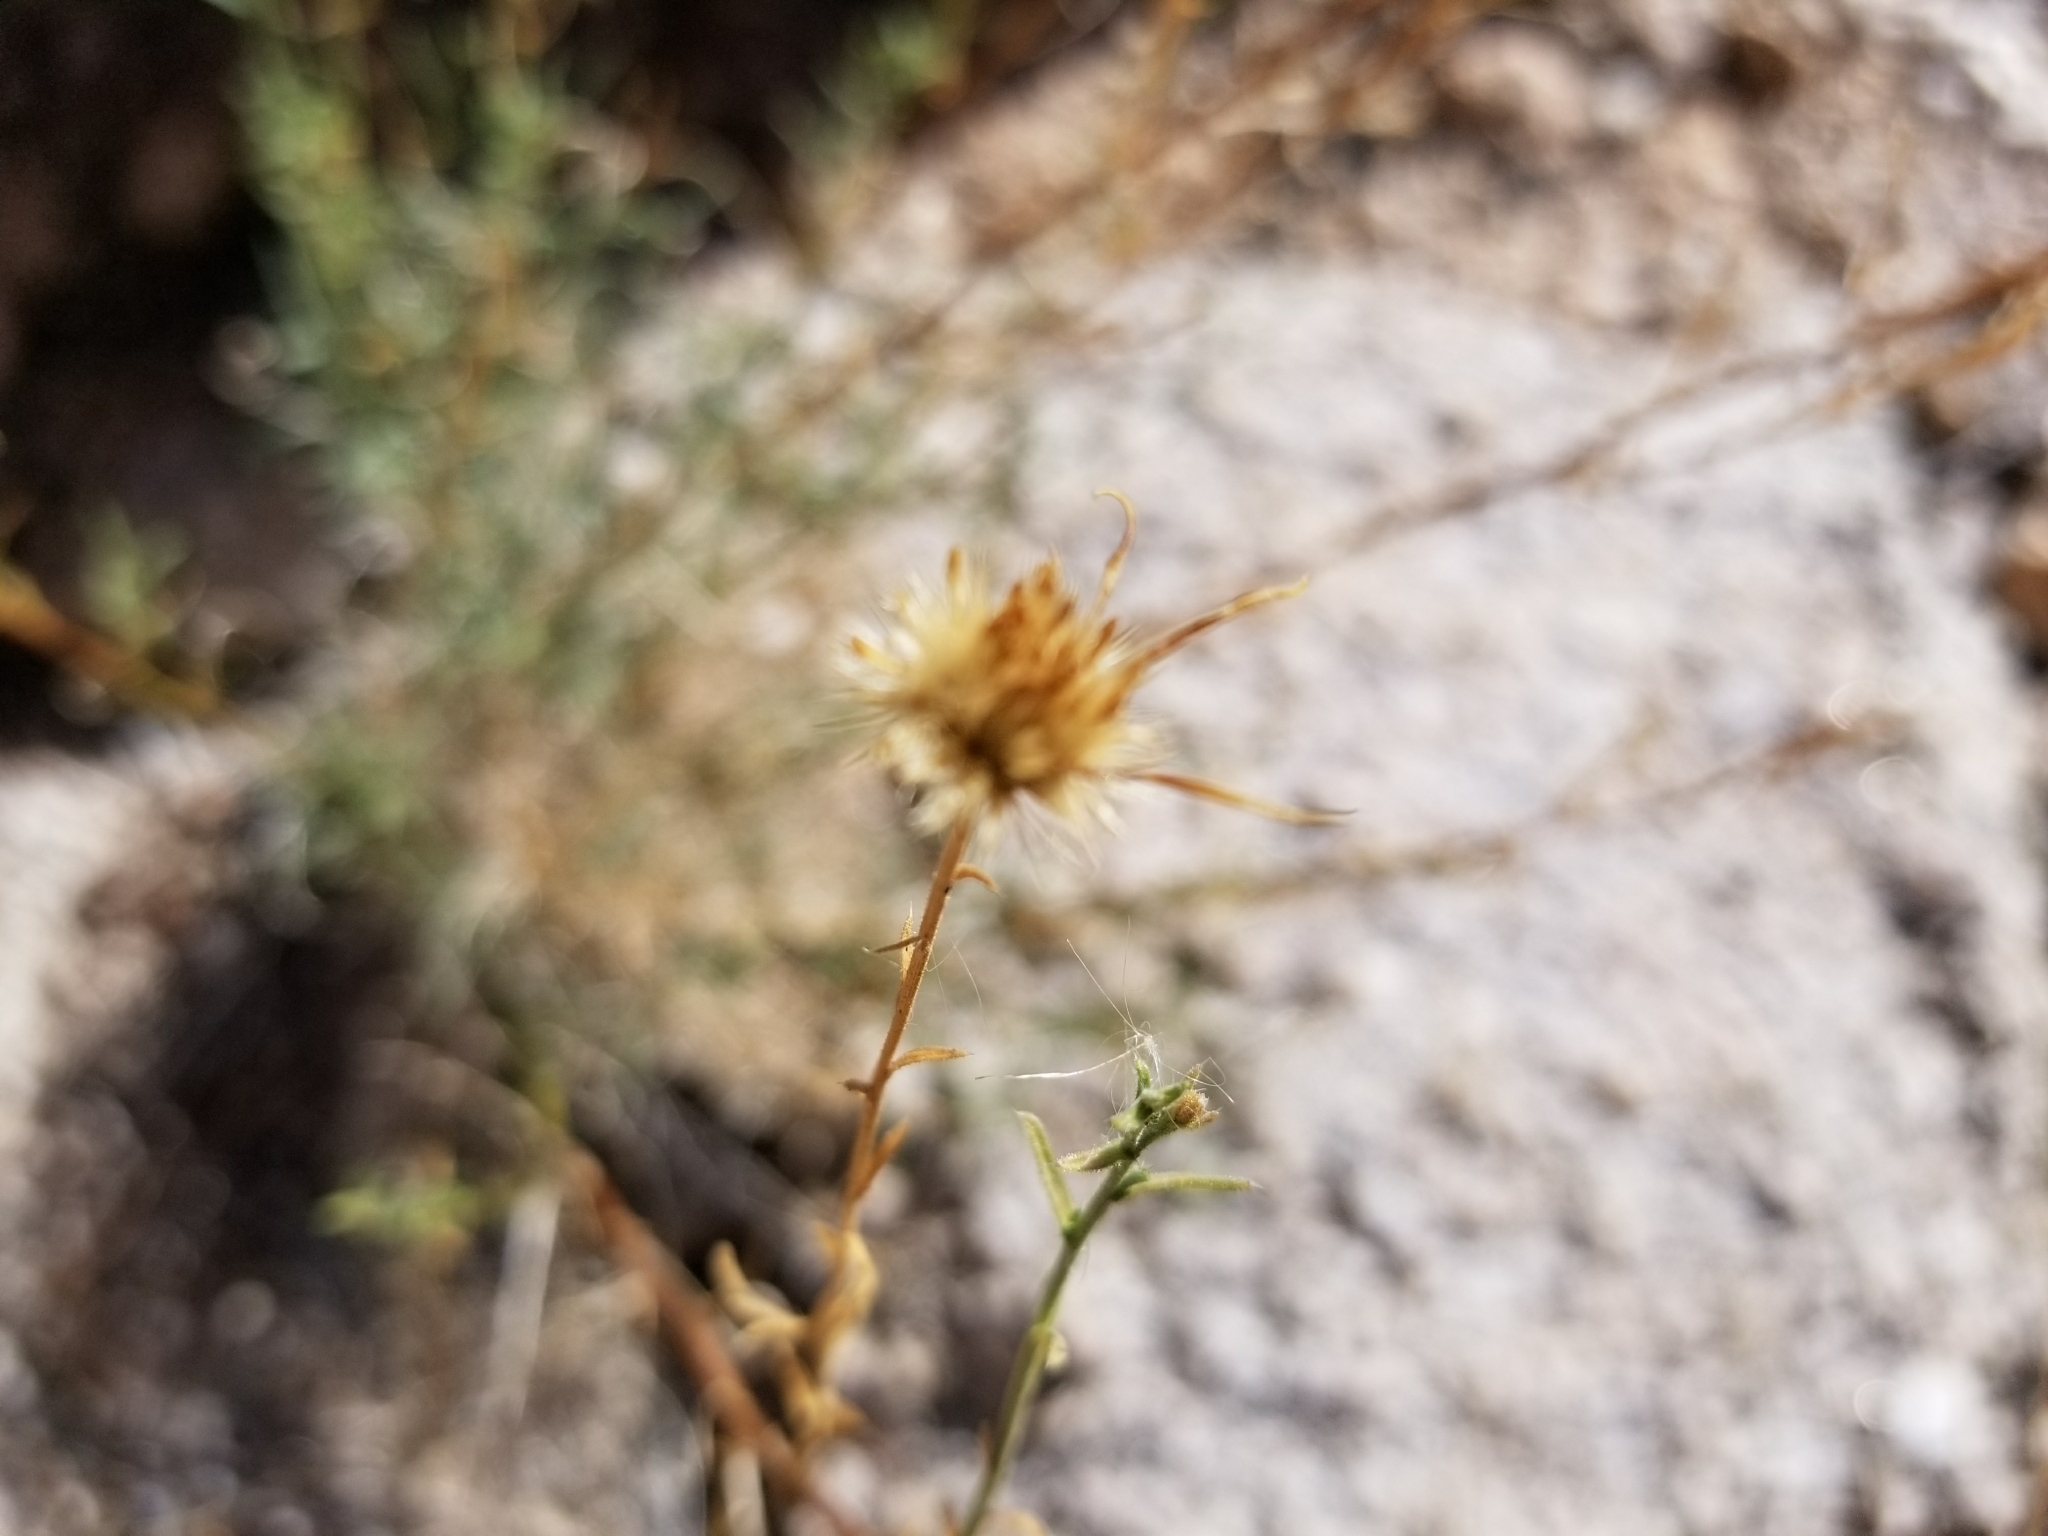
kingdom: Plantae
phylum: Tracheophyta
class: Magnoliopsida
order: Asterales
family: Asteraceae
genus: Xanthisma
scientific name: Xanthisma spinulosum
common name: Spiny goldenweed
